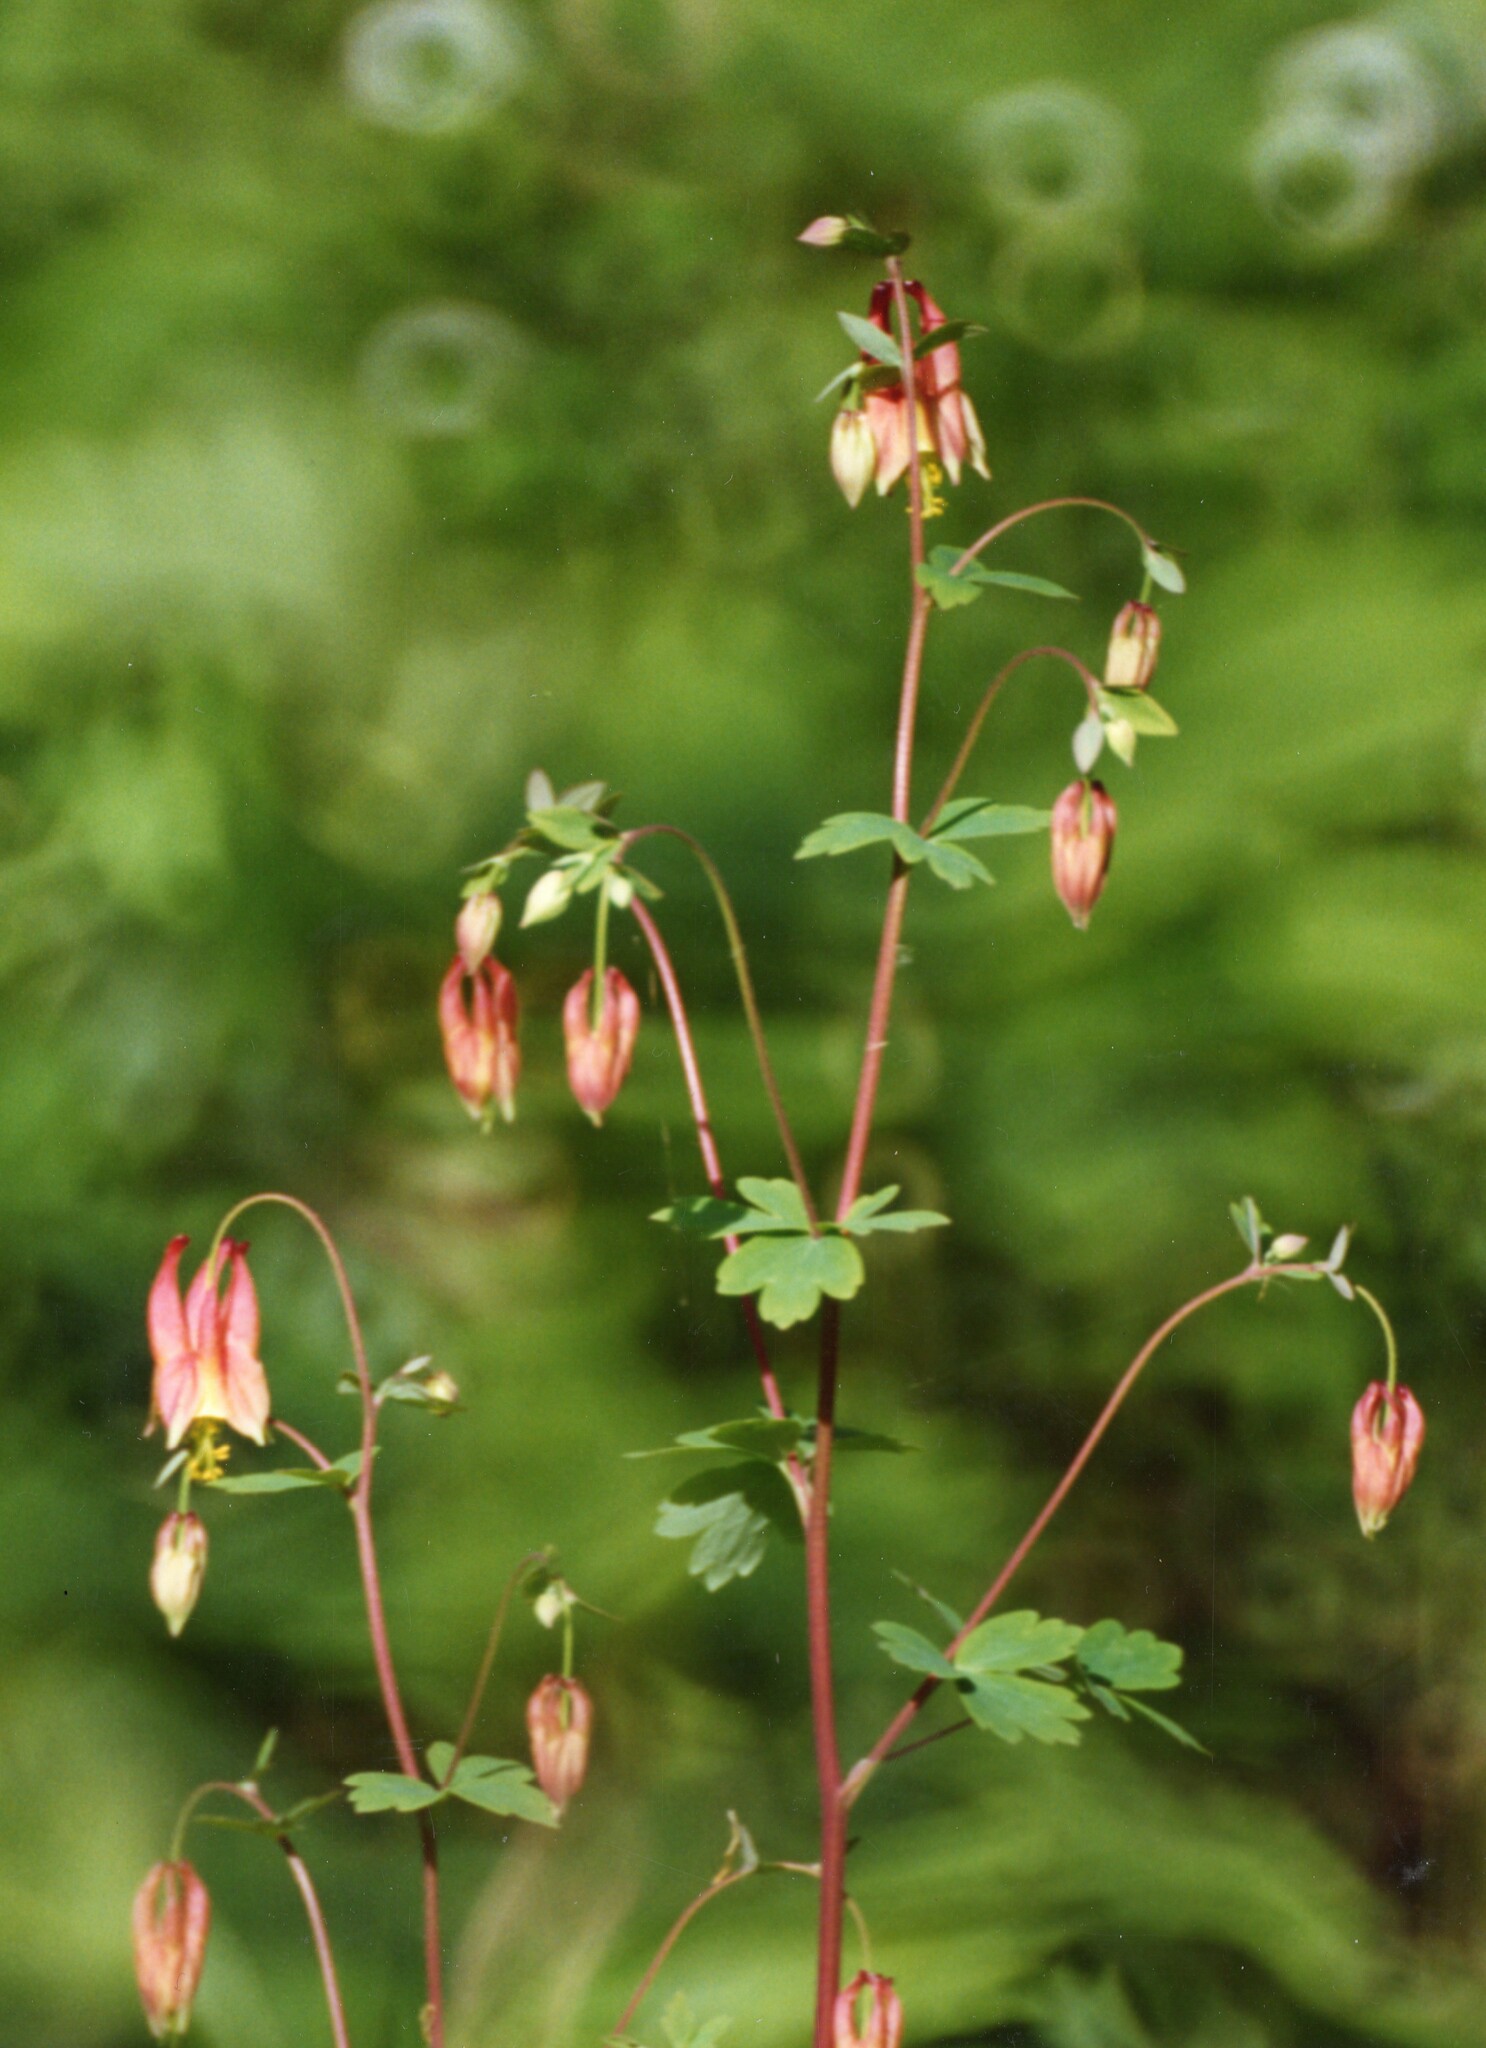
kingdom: Plantae
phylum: Tracheophyta
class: Magnoliopsida
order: Ranunculales
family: Ranunculaceae
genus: Aquilegia
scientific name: Aquilegia canadensis
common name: American columbine
